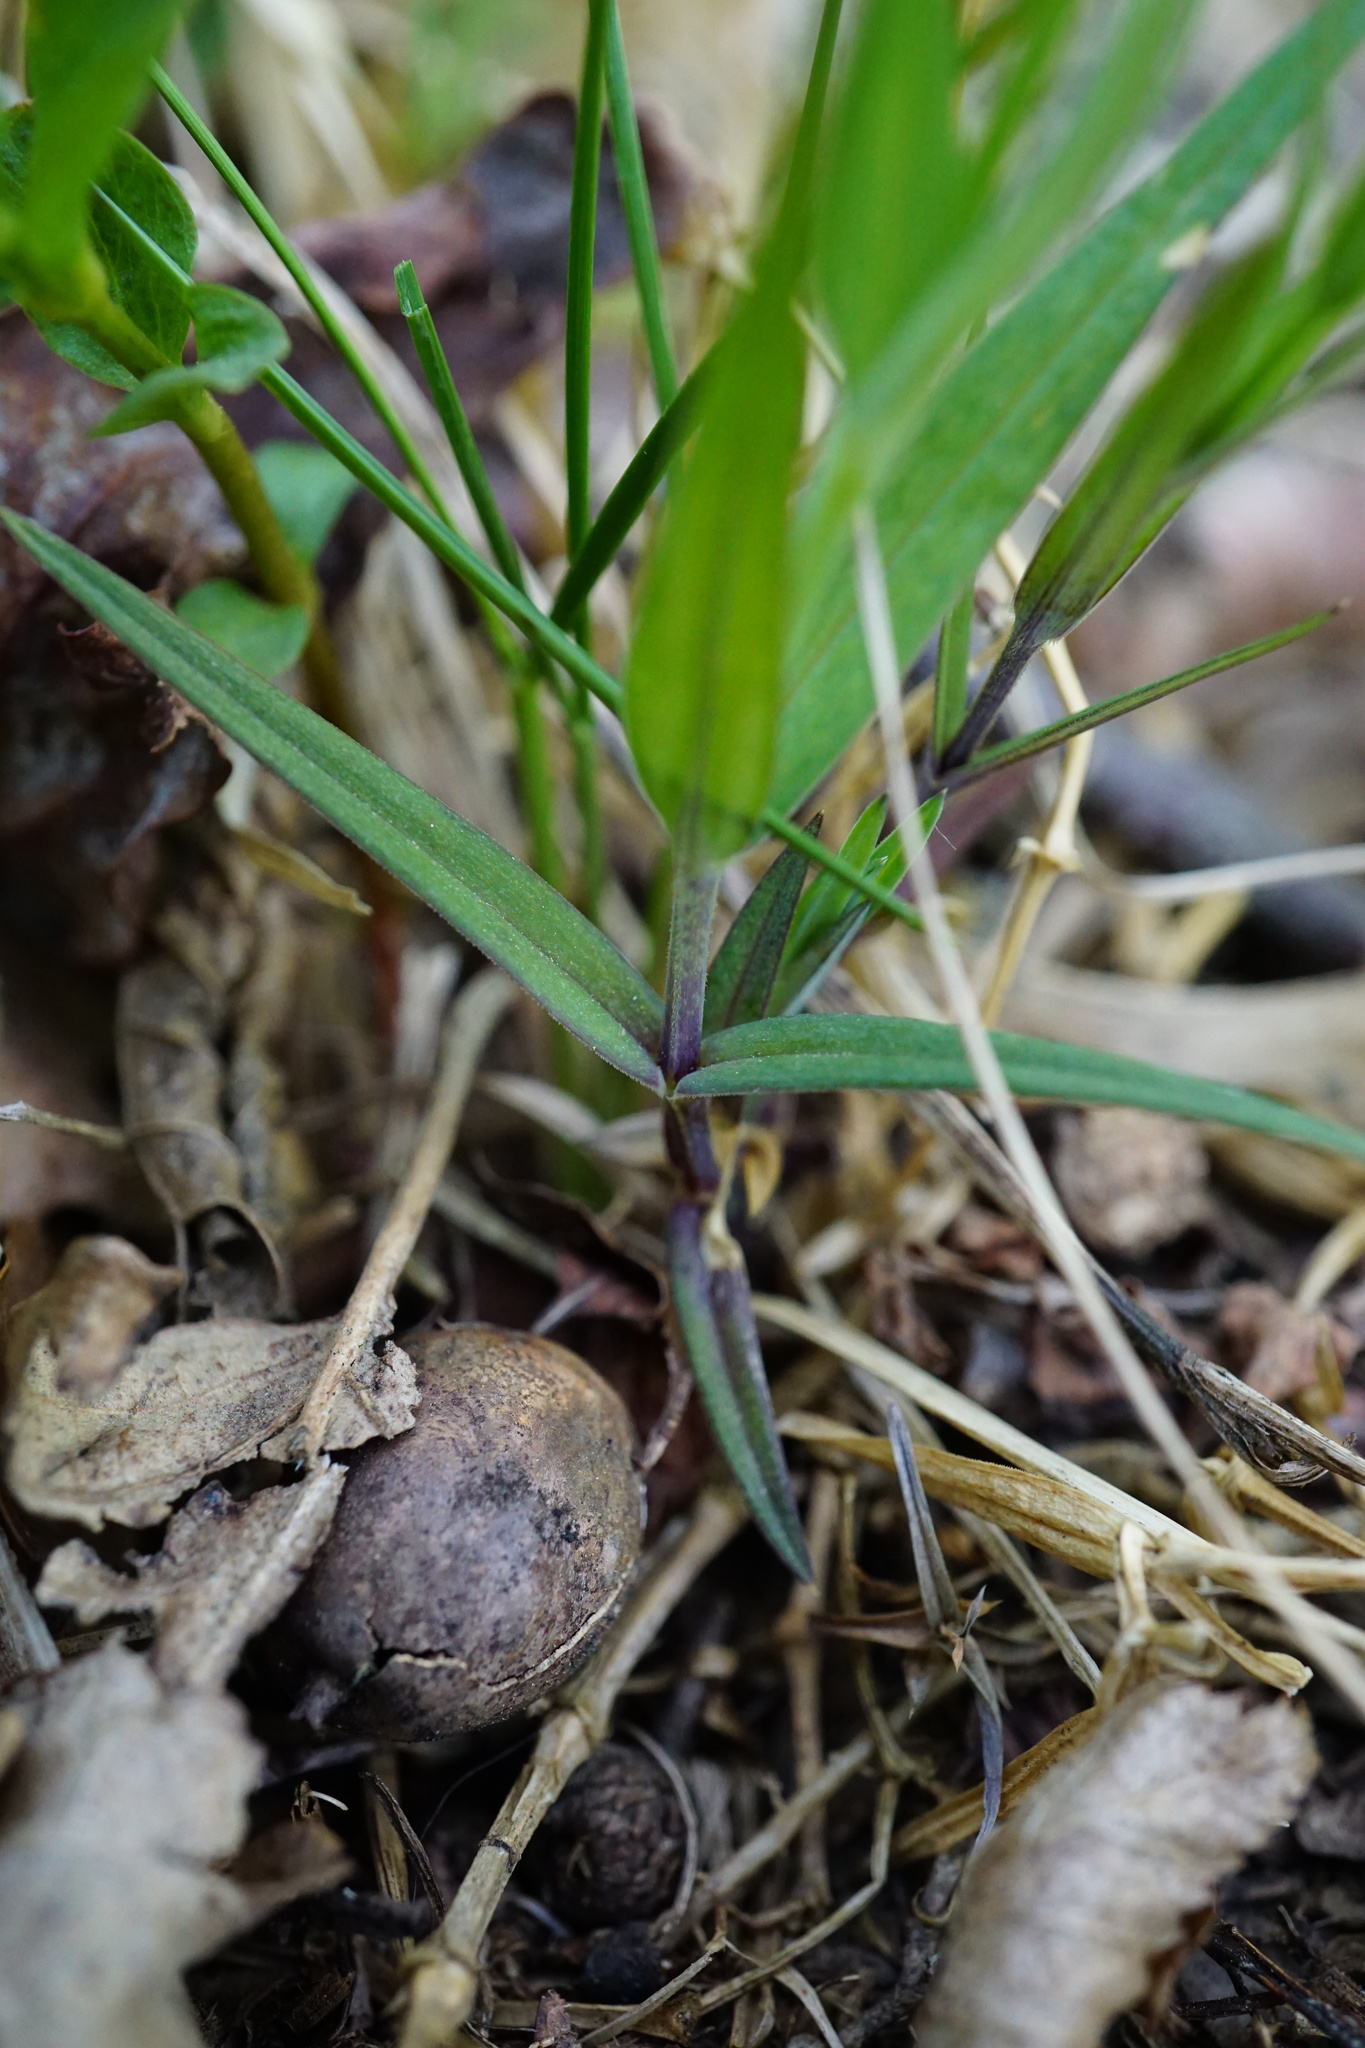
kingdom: Plantae
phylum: Tracheophyta
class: Magnoliopsida
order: Caryophyllales
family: Caryophyllaceae
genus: Rabelera
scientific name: Rabelera holostea
